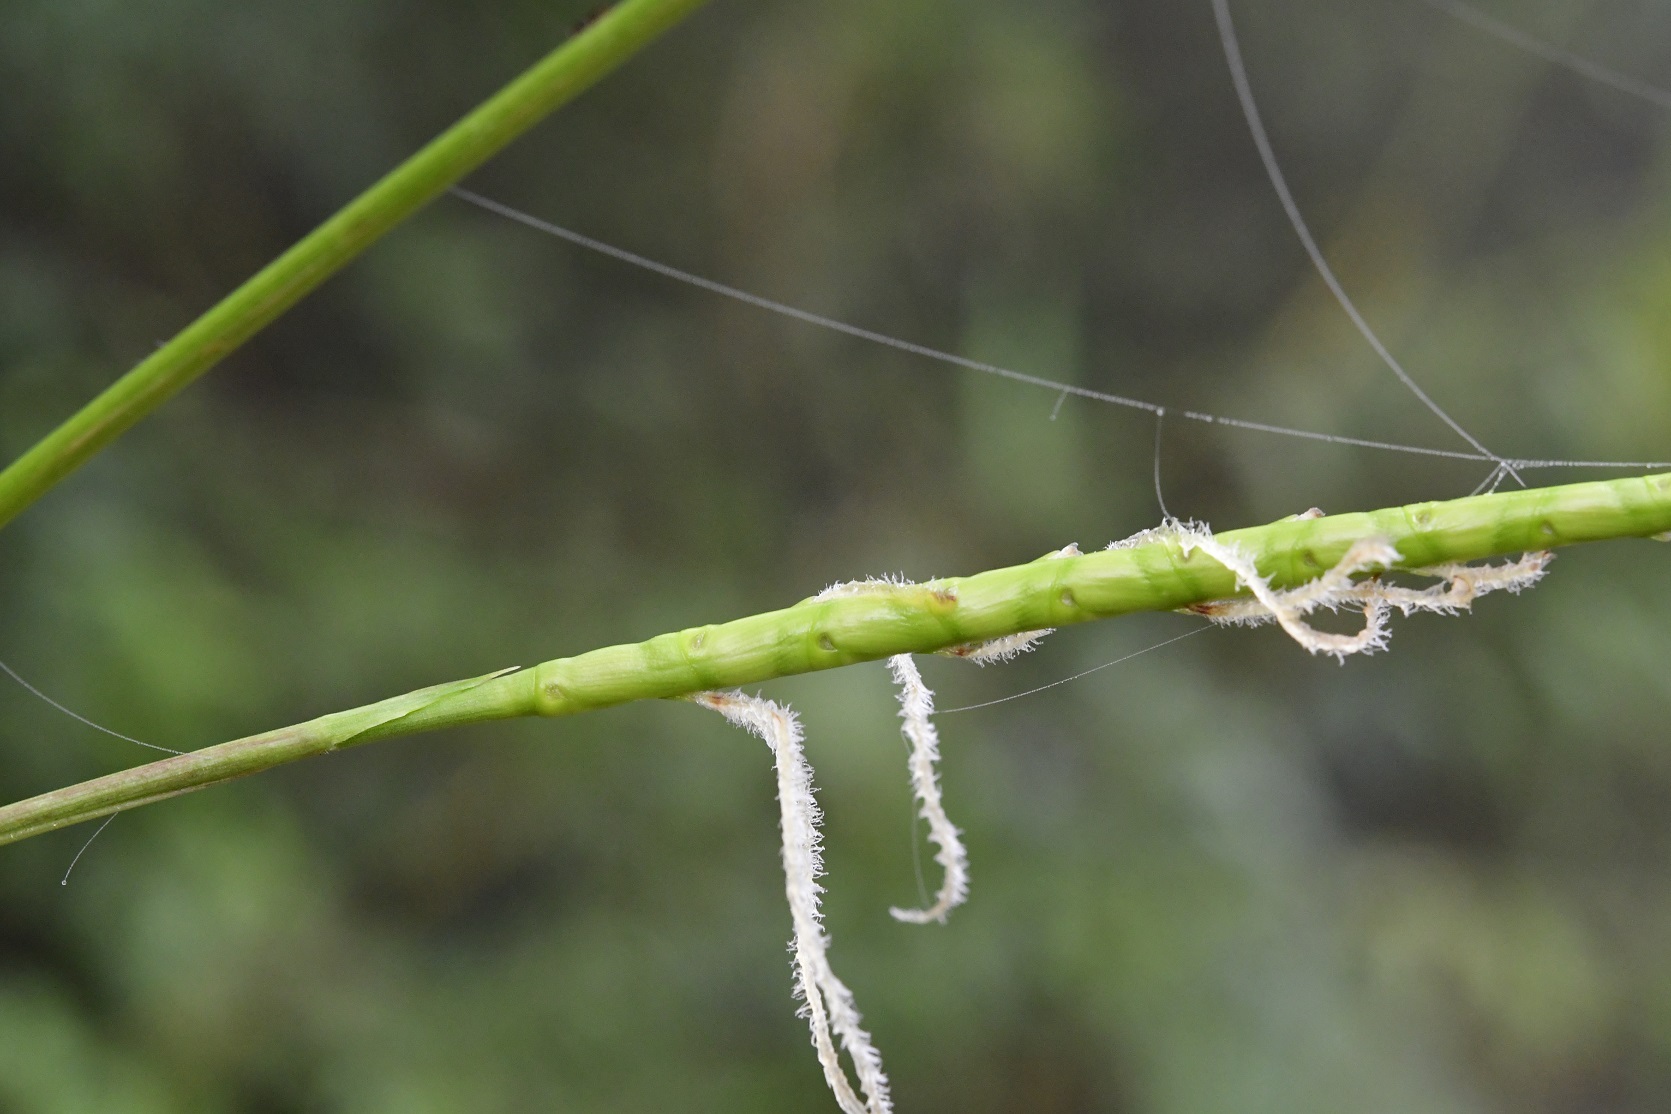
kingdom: Plantae
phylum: Tracheophyta
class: Liliopsida
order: Poales
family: Poaceae
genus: Tripsacum
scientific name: Tripsacum jalapense
